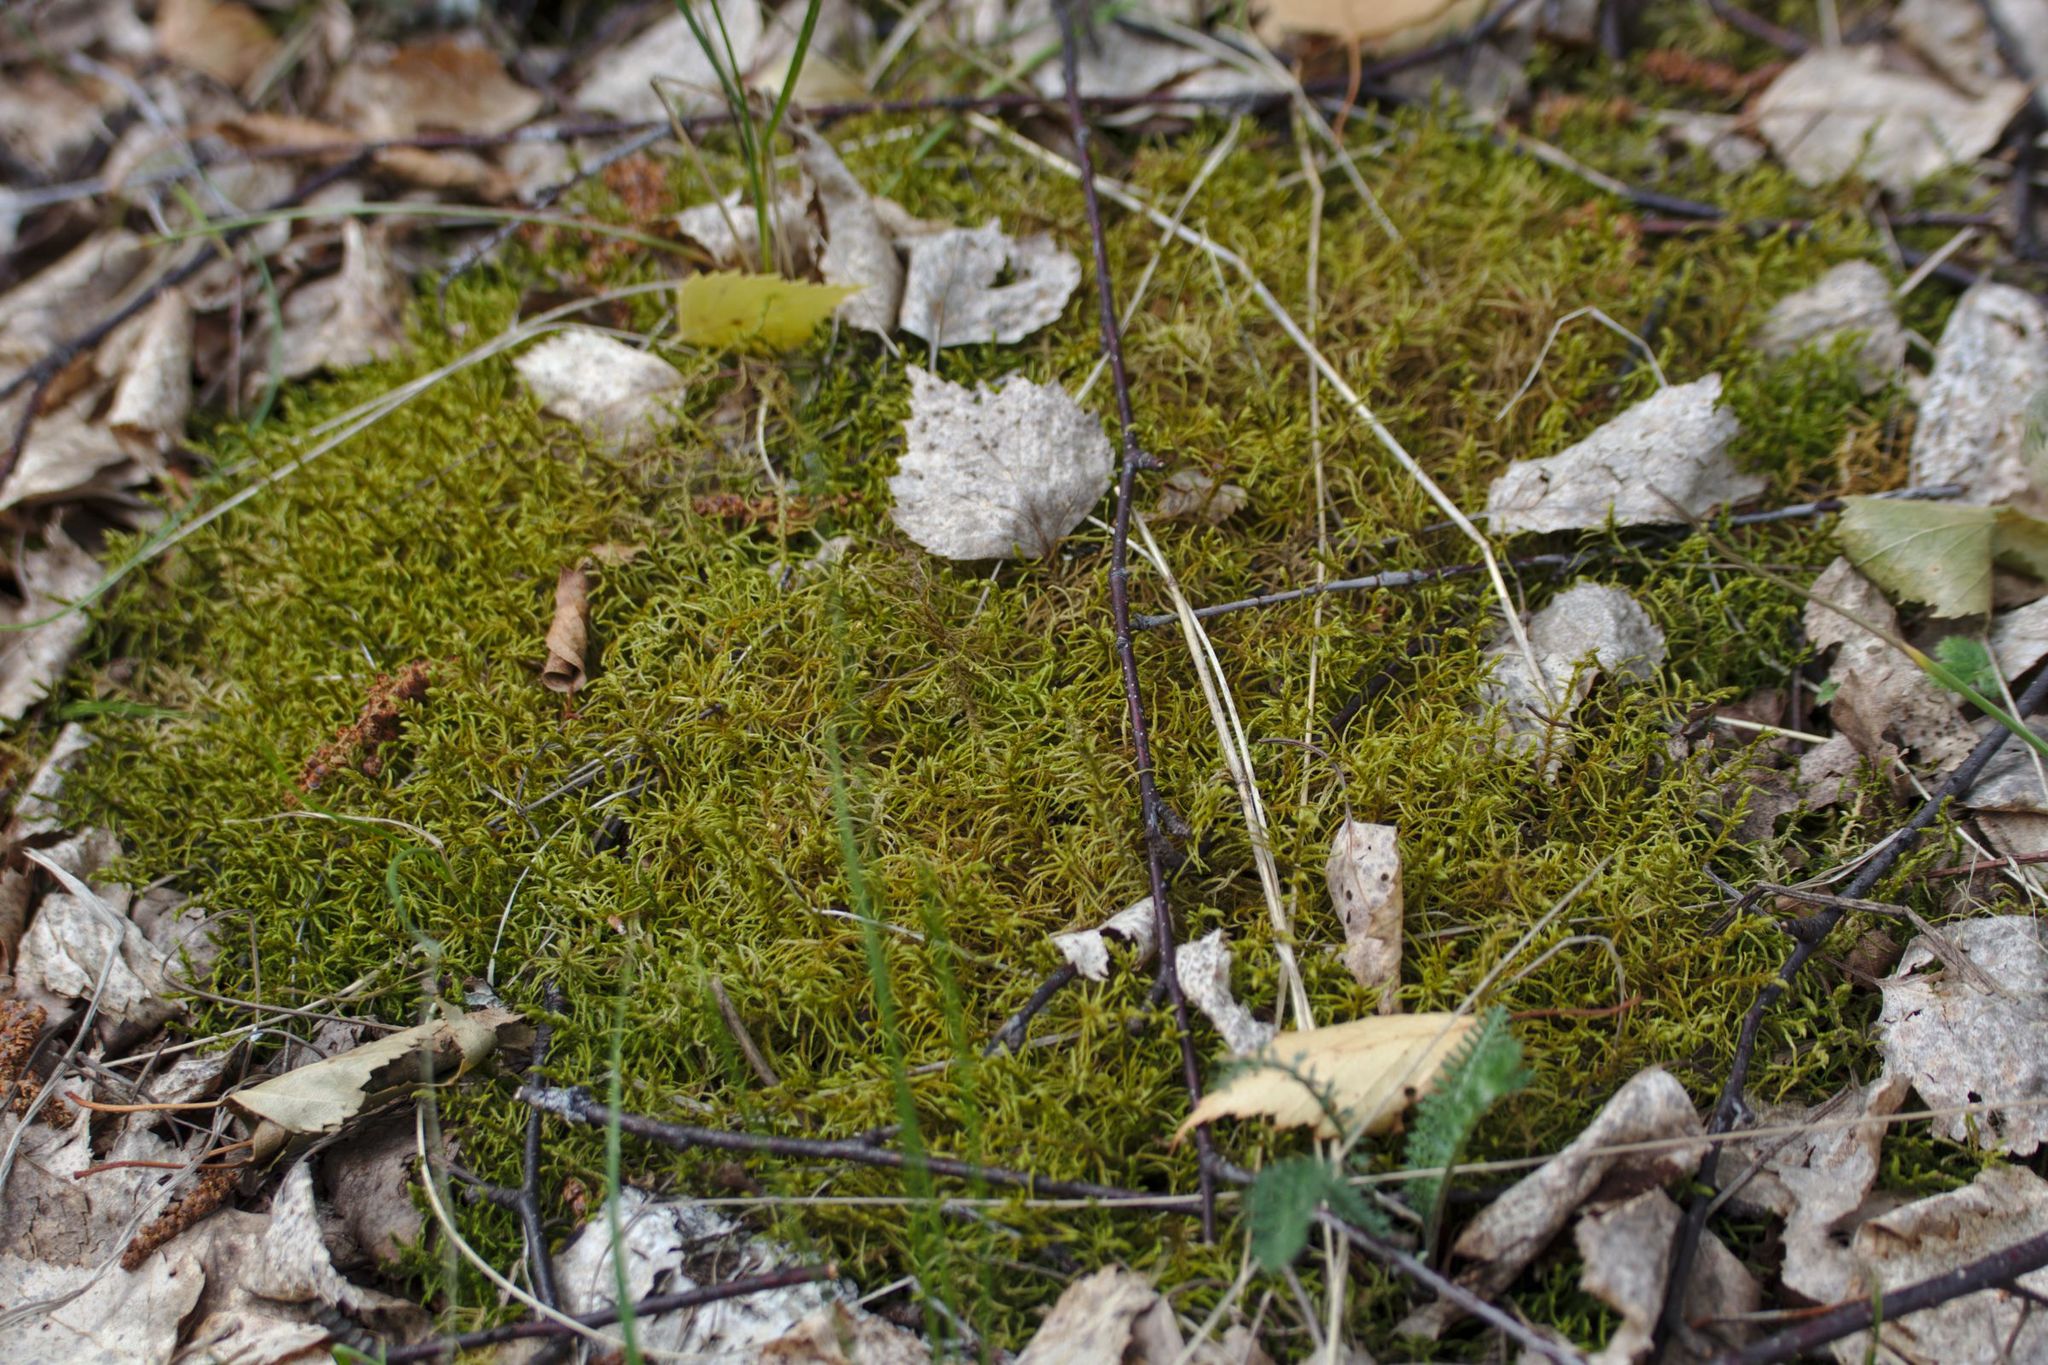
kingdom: Plantae
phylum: Bryophyta
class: Bryopsida
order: Hypnales
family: Thuidiaceae
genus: Abietinella
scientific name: Abietinella abietina
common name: Wiry fern moss
